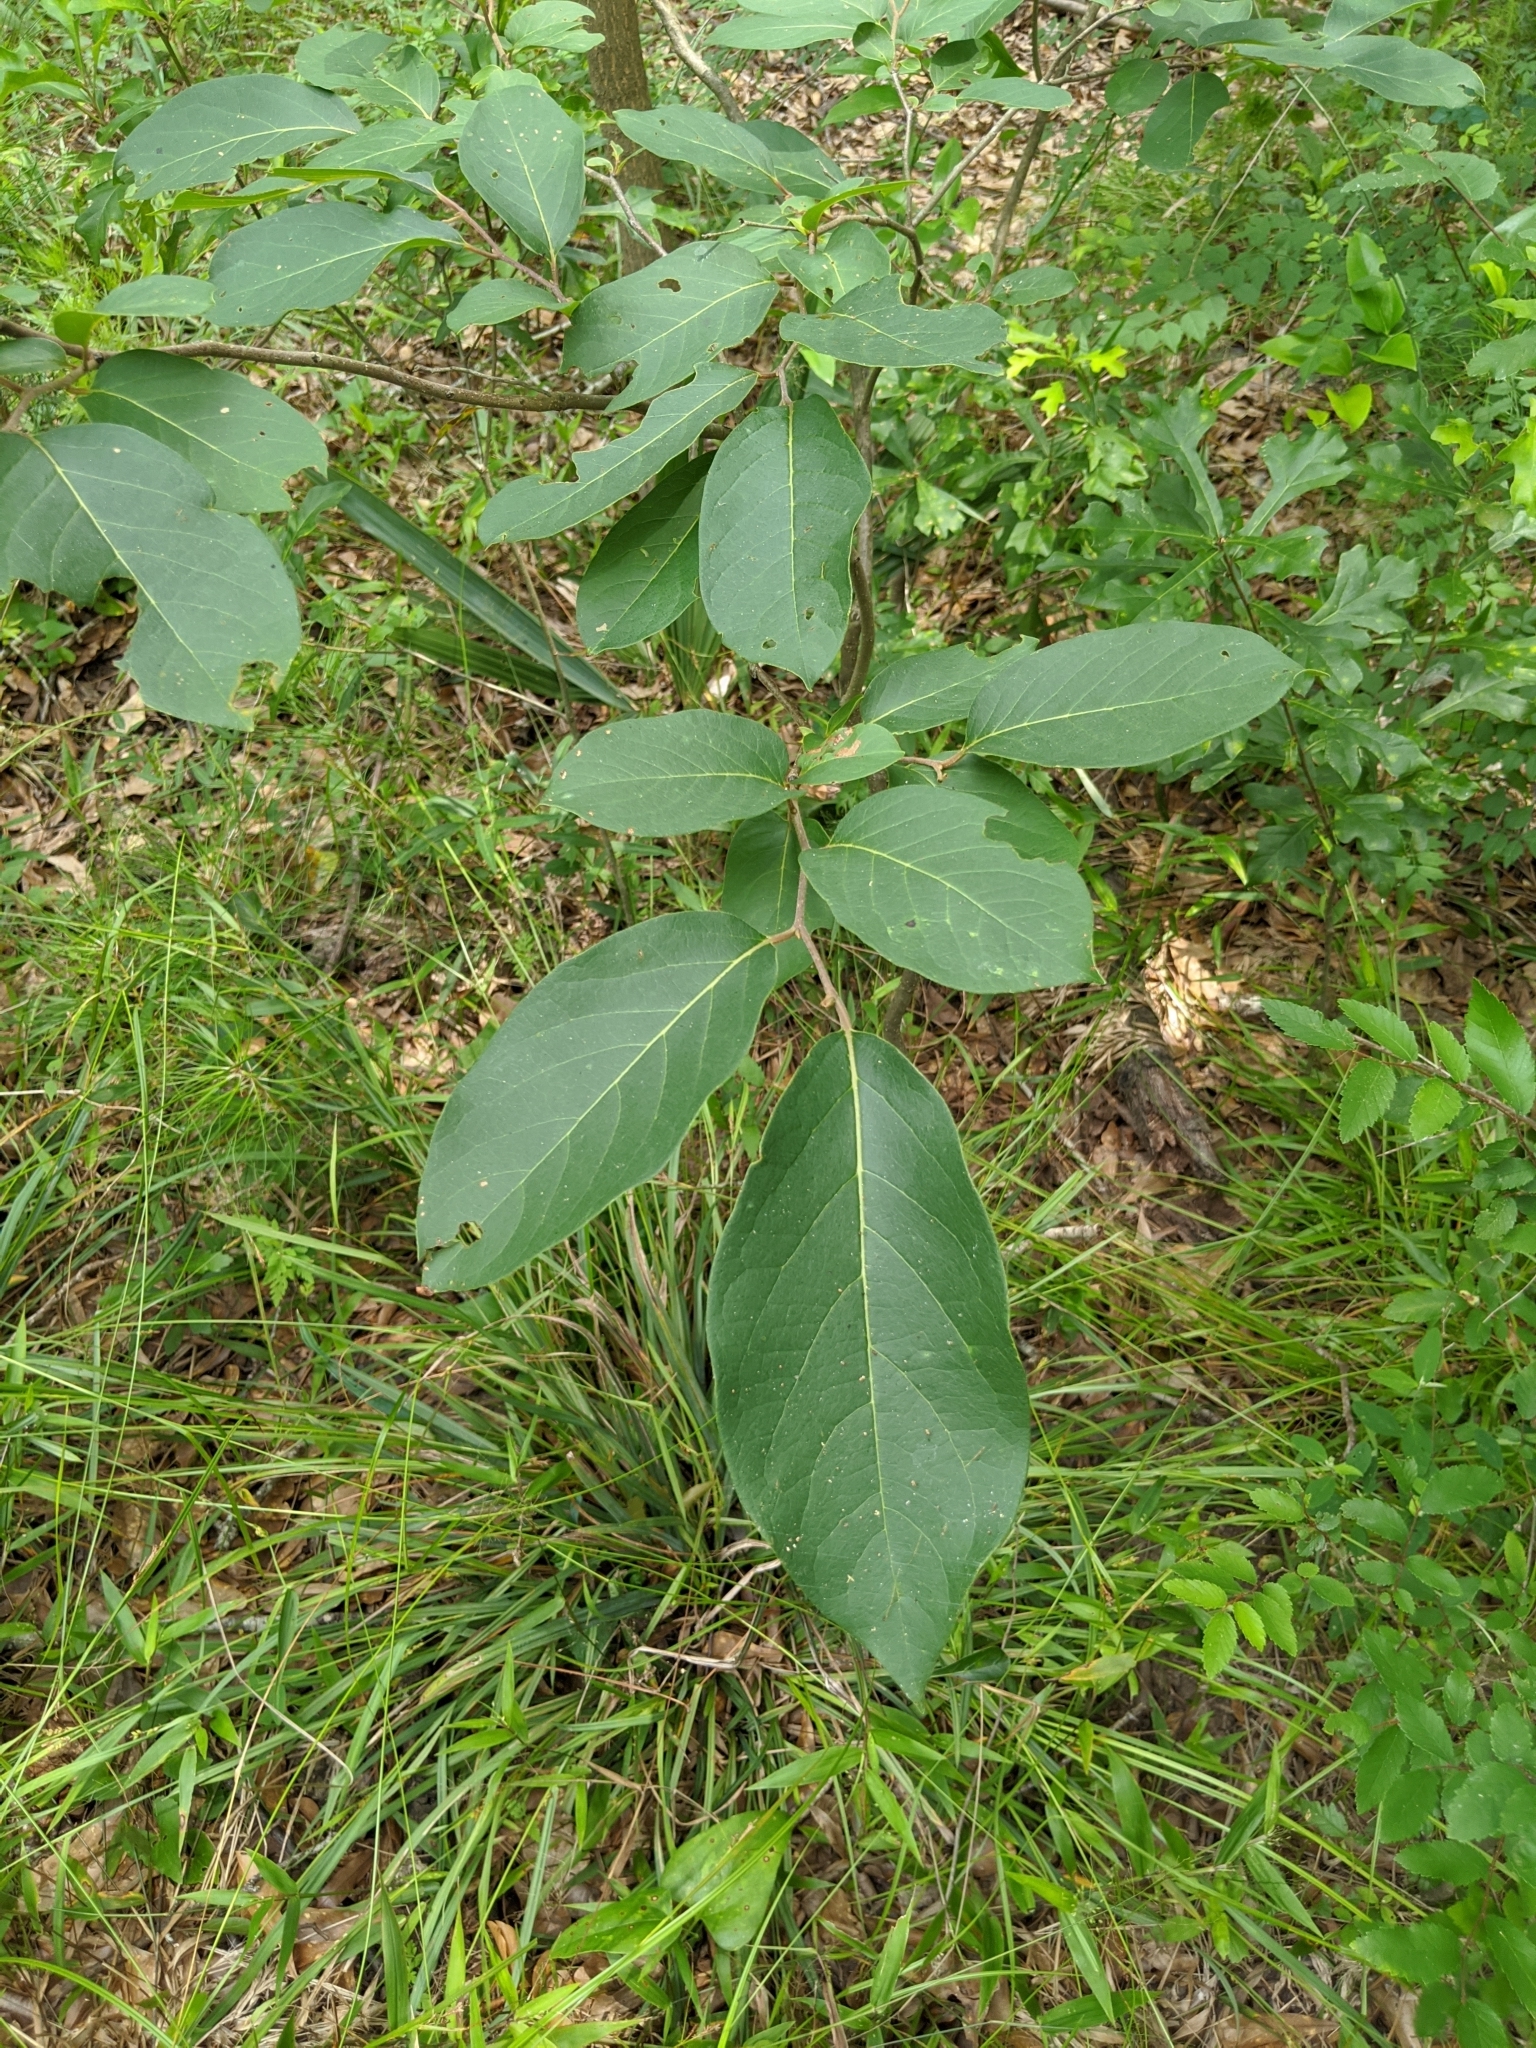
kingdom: Plantae
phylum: Tracheophyta
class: Magnoliopsida
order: Ericales
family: Ebenaceae
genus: Diospyros
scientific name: Diospyros virginiana
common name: Persimmon
